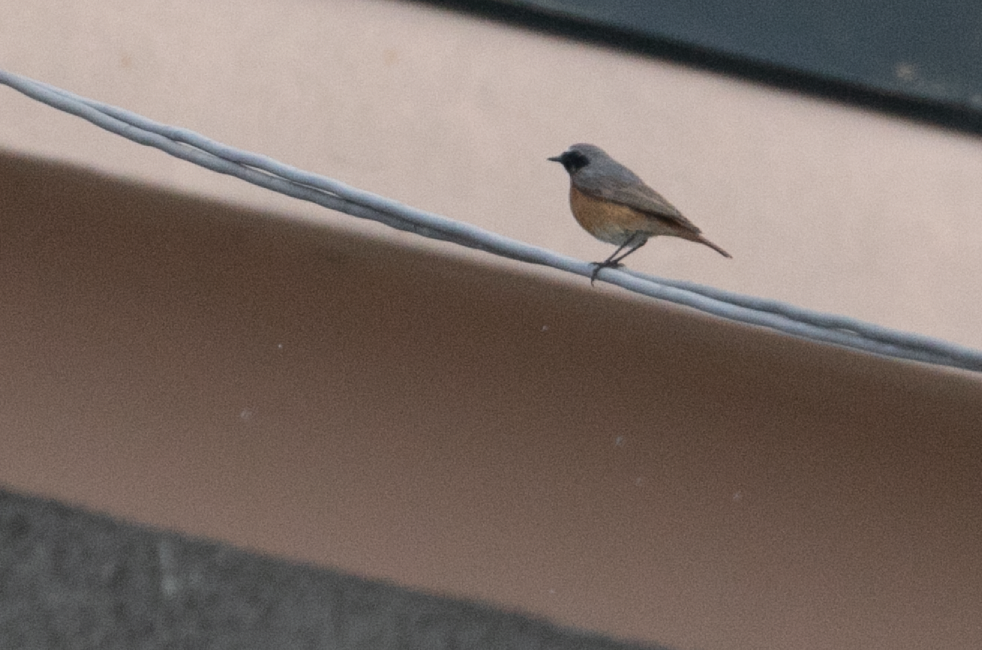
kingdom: Animalia
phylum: Chordata
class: Aves
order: Passeriformes
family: Muscicapidae
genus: Phoenicurus
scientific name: Phoenicurus phoenicurus
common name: Common redstart
